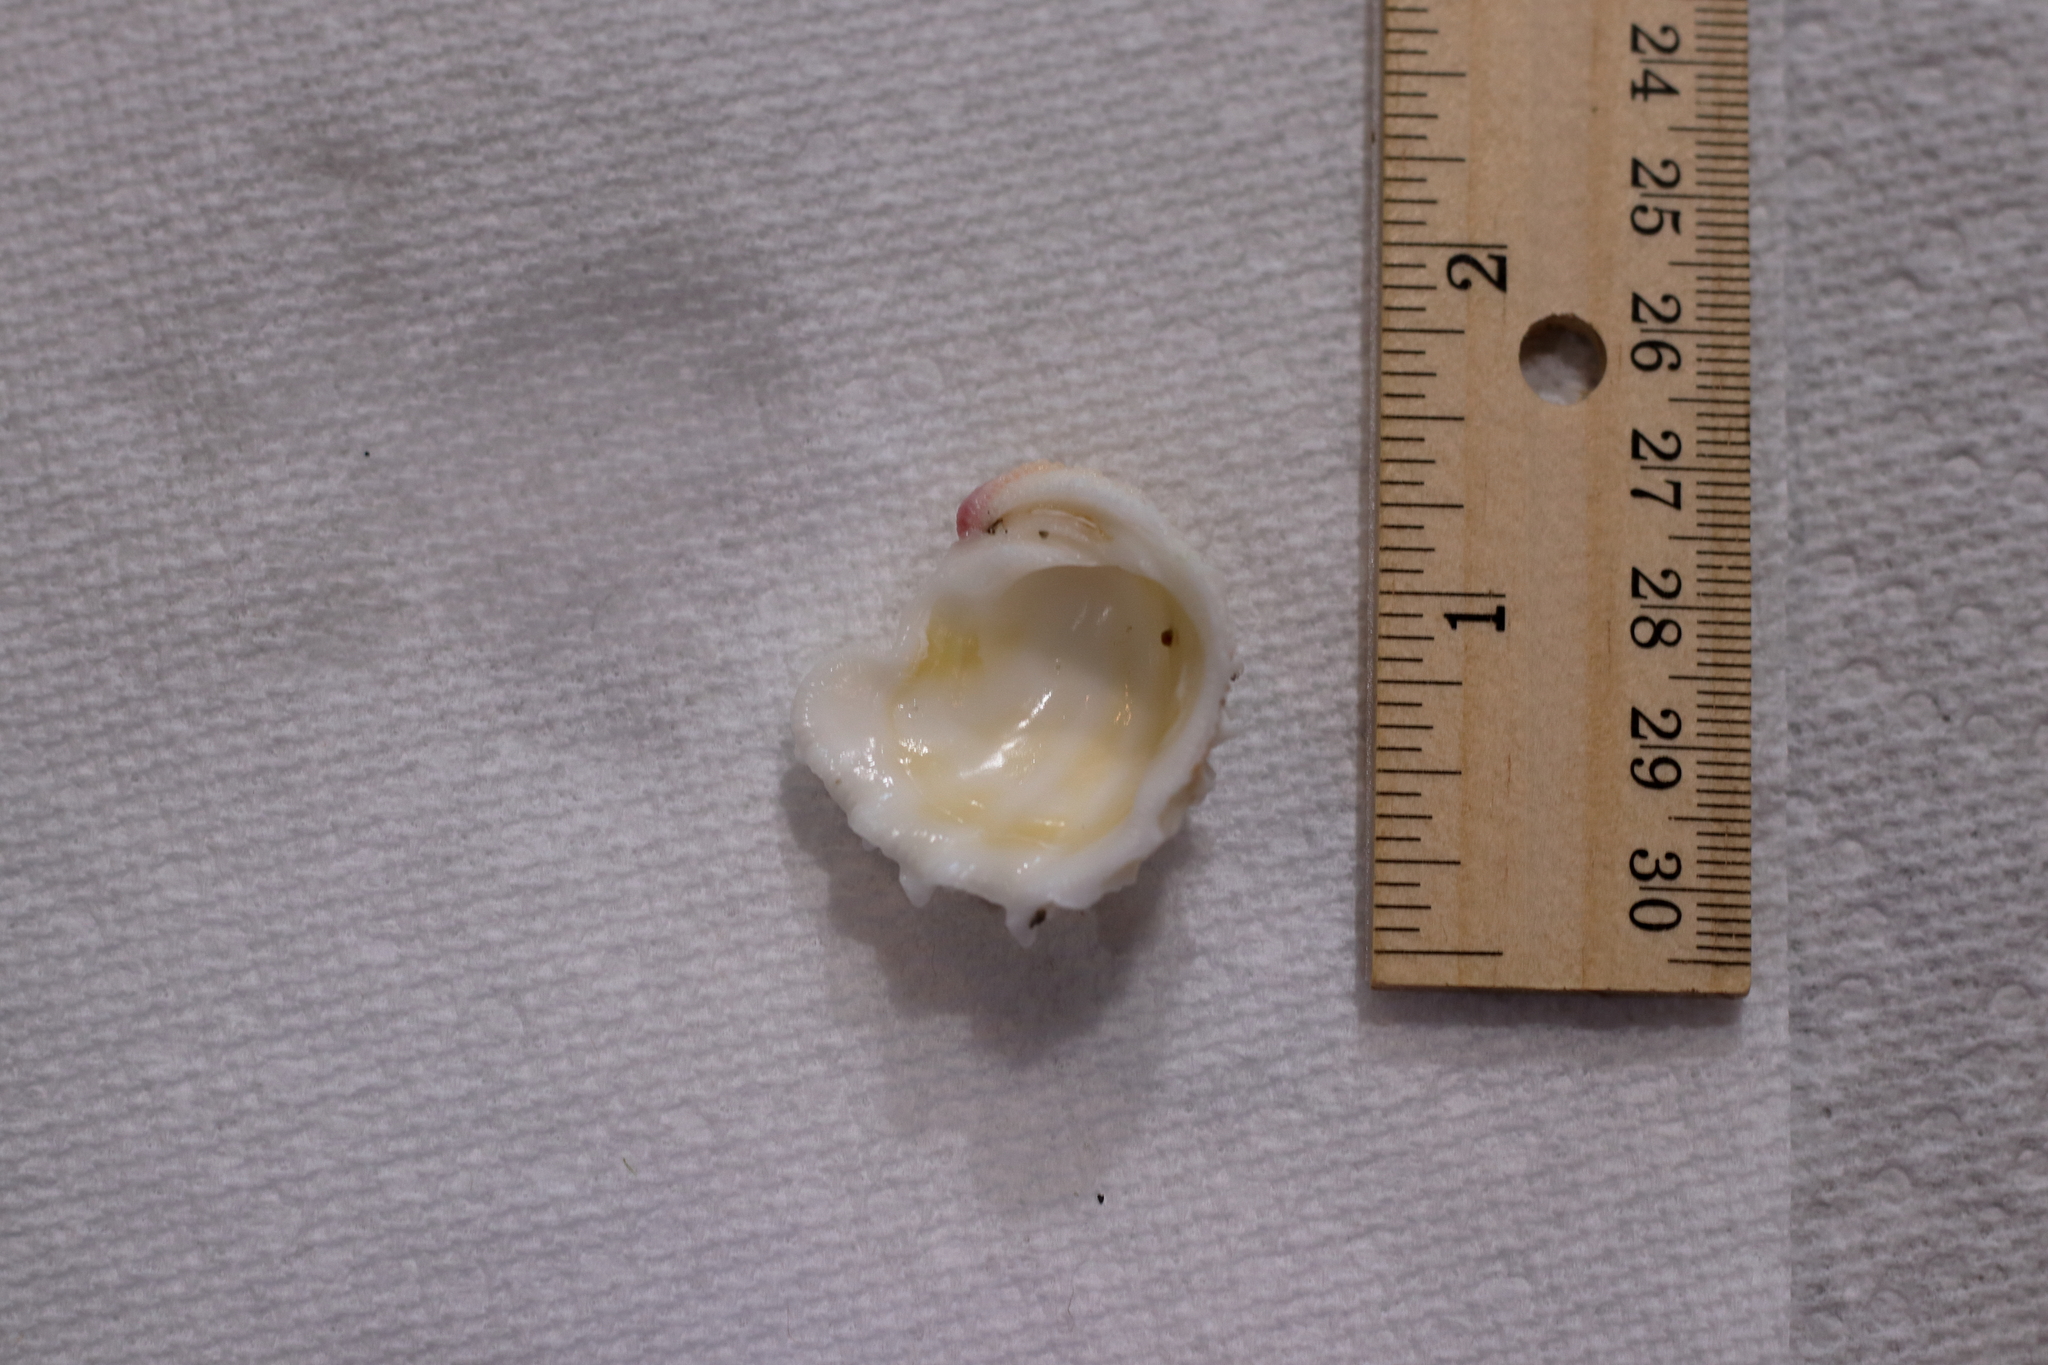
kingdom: Animalia
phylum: Mollusca
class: Bivalvia
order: Venerida
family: Chamidae
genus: Arcinella
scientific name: Arcinella cornuta
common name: Florida spiny jewel box
